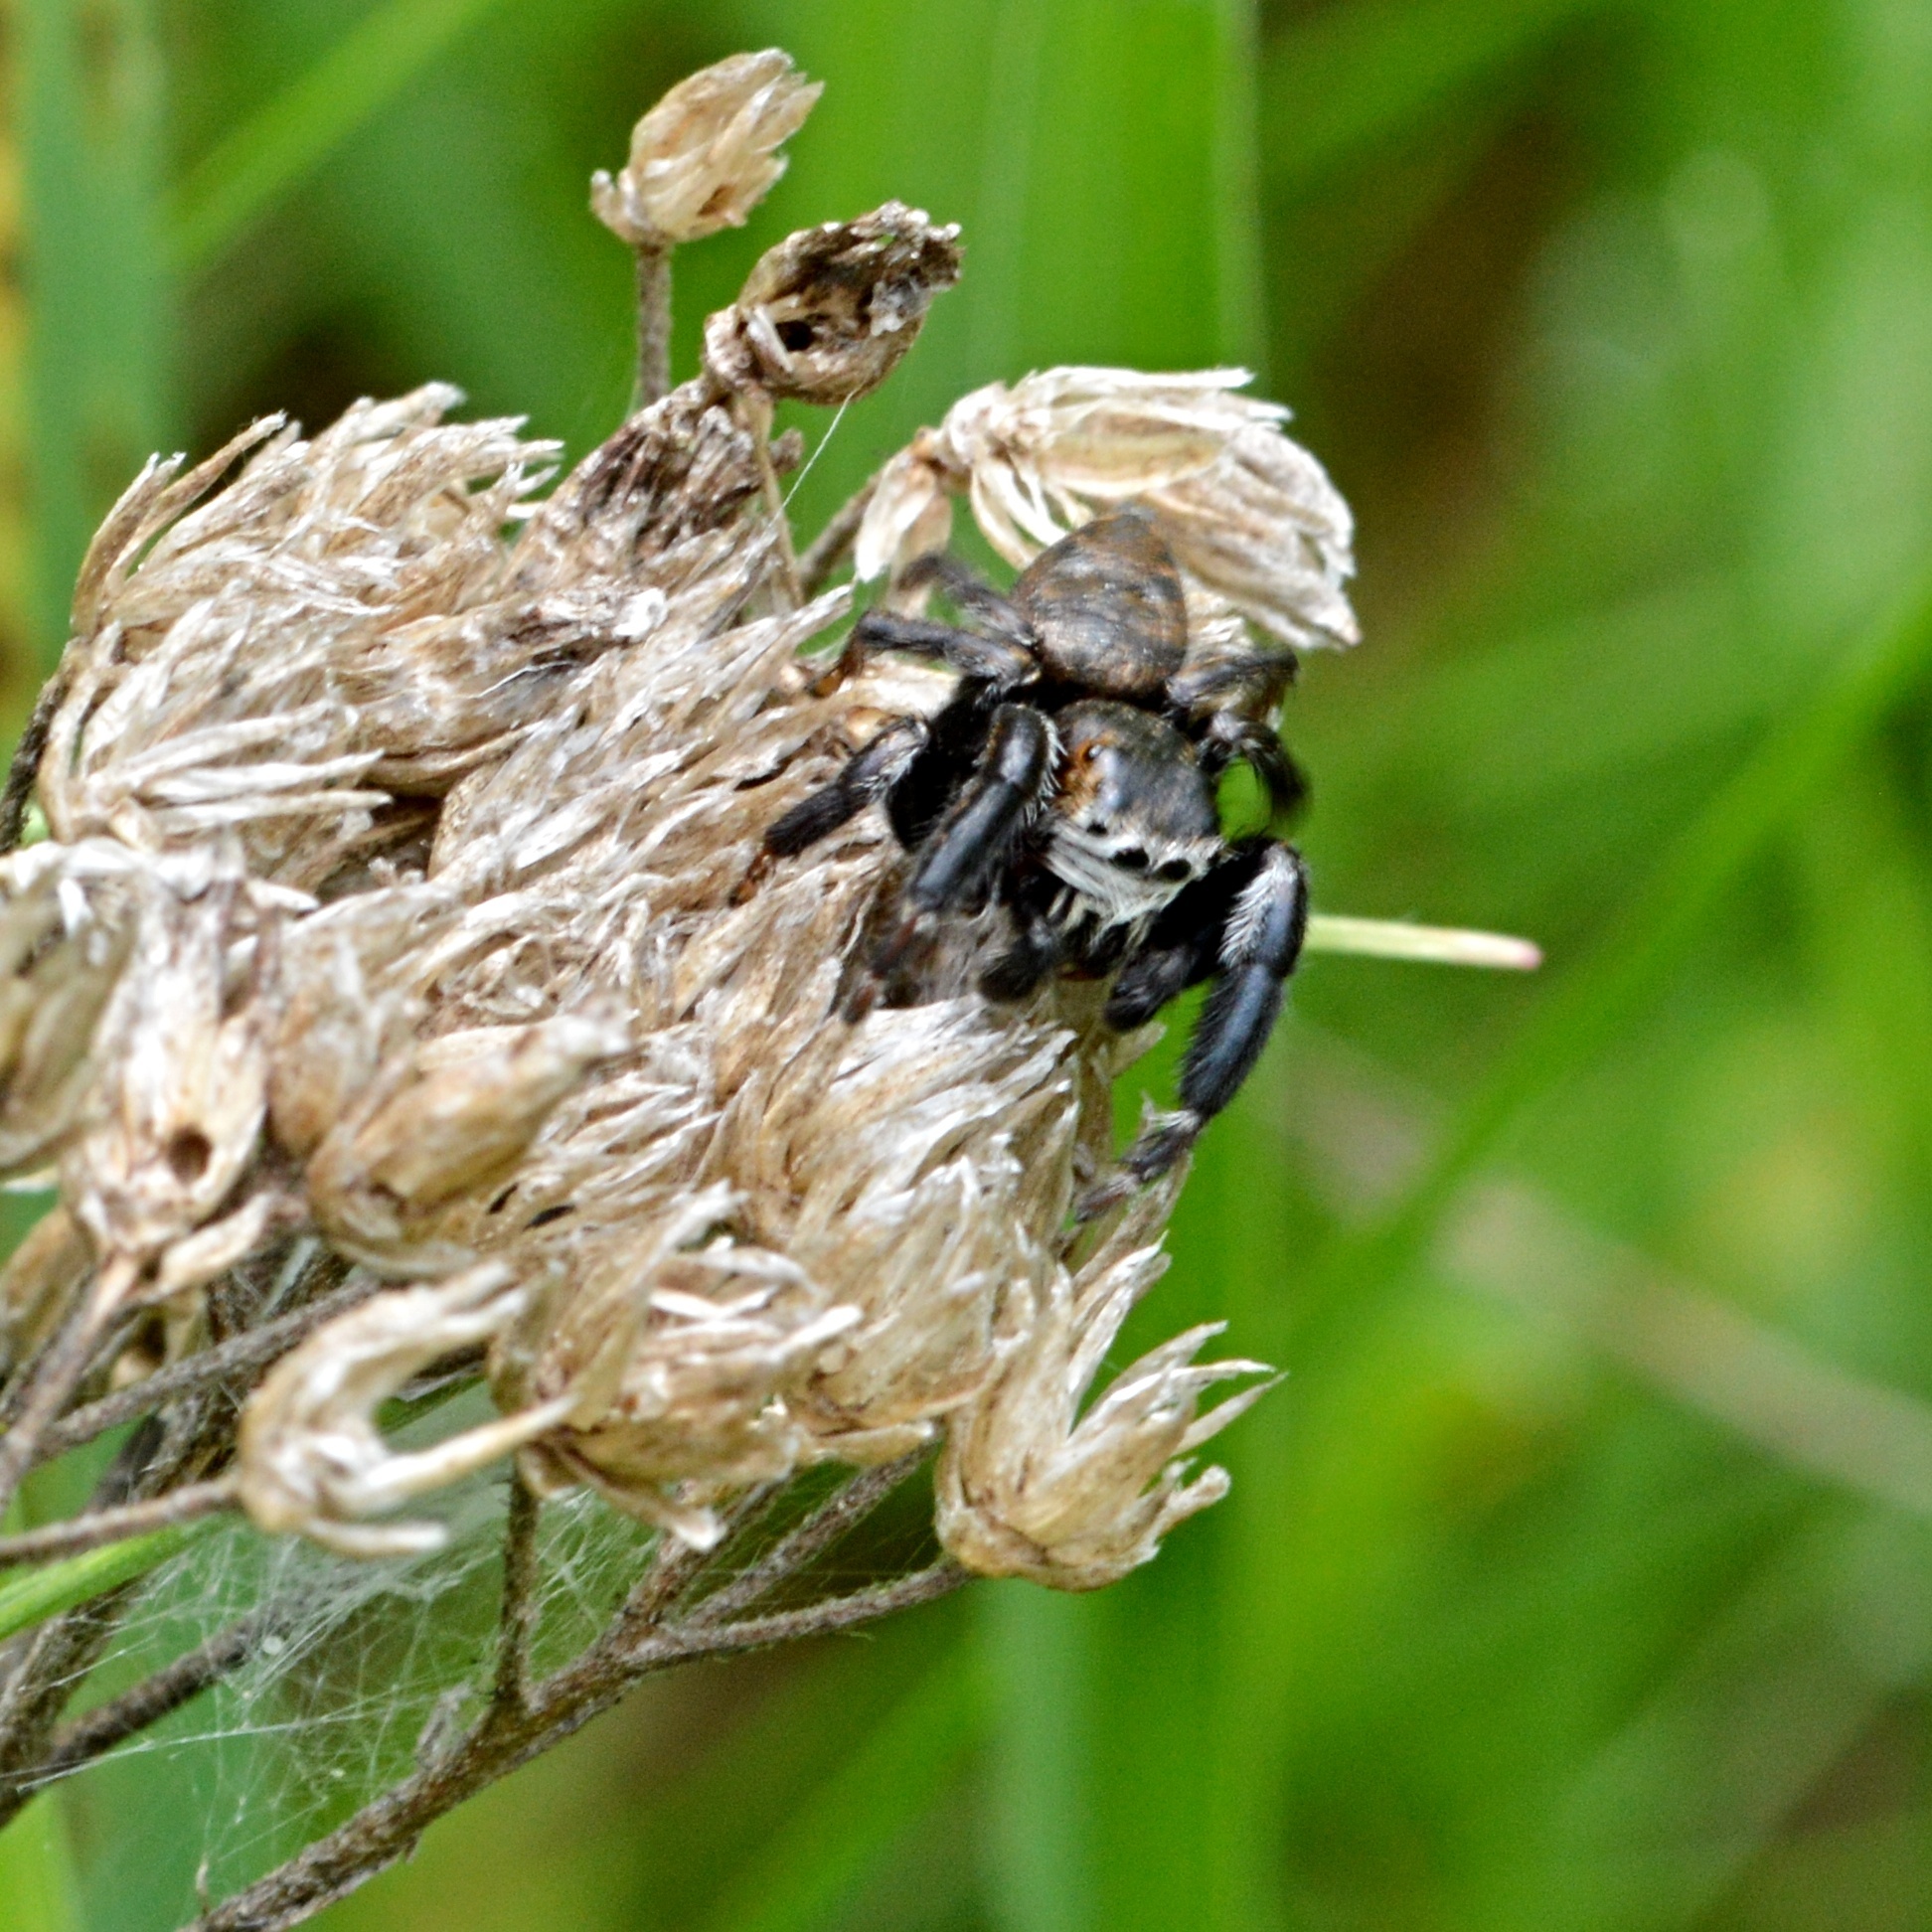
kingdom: Animalia
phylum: Arthropoda
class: Arachnida
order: Araneae
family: Salticidae
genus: Evarcha
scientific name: Evarcha arcuata
